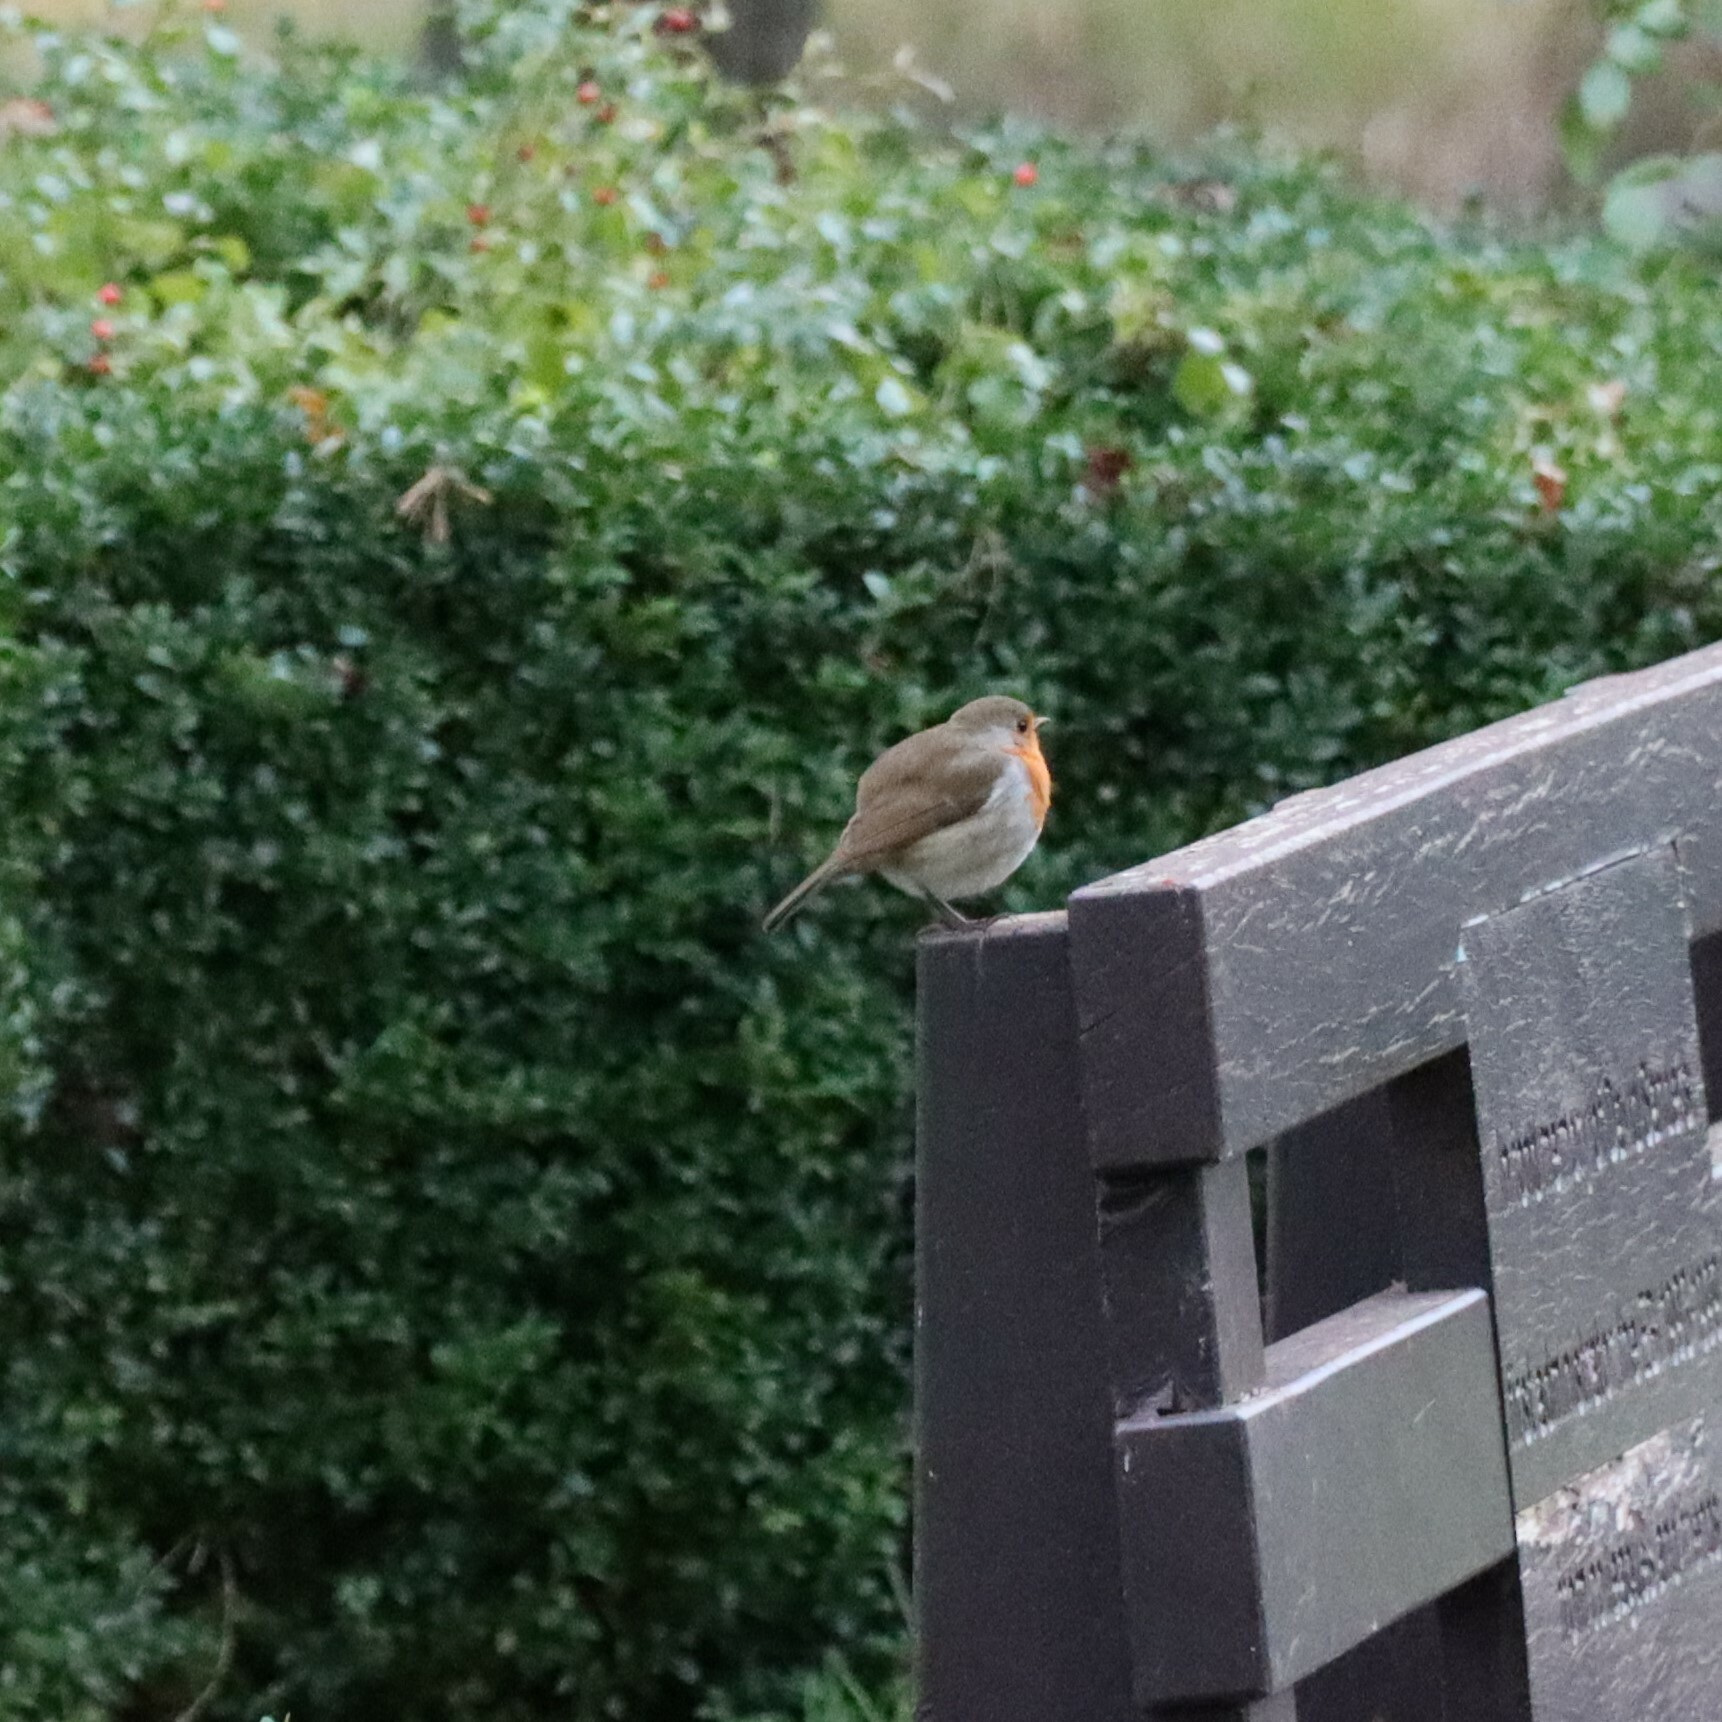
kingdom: Animalia
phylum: Chordata
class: Aves
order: Passeriformes
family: Muscicapidae
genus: Erithacus
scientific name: Erithacus rubecula
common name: European robin
